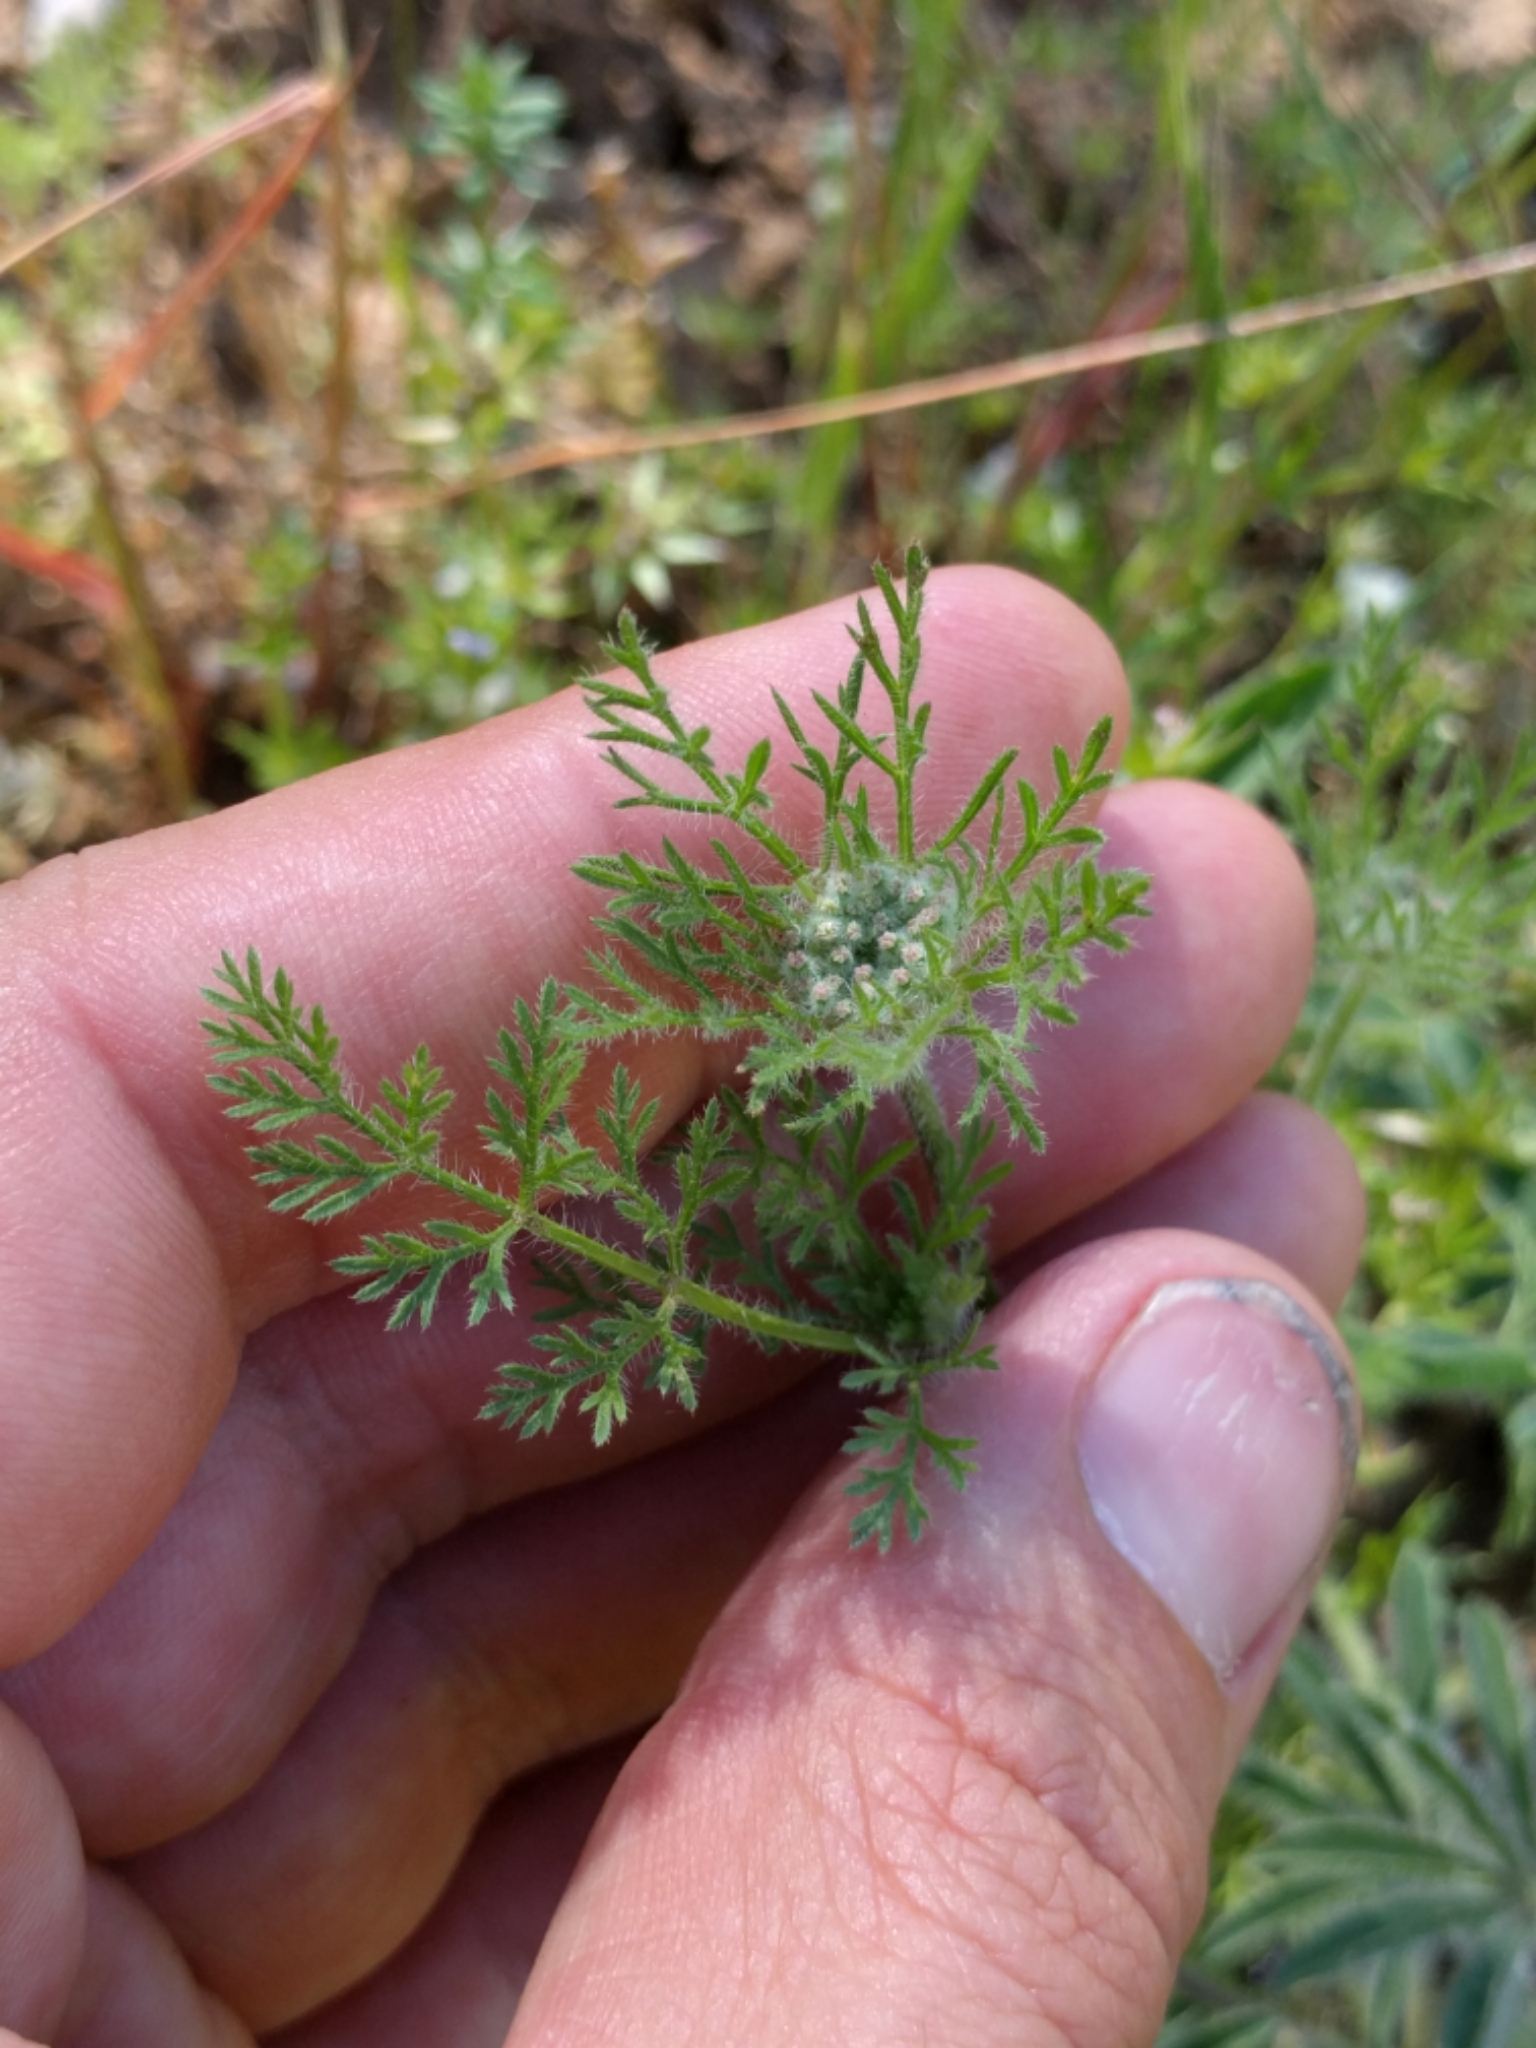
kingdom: Plantae
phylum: Tracheophyta
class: Magnoliopsida
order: Apiales
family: Apiaceae
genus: Daucus
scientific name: Daucus pusillus
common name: Southwest wild carrot
